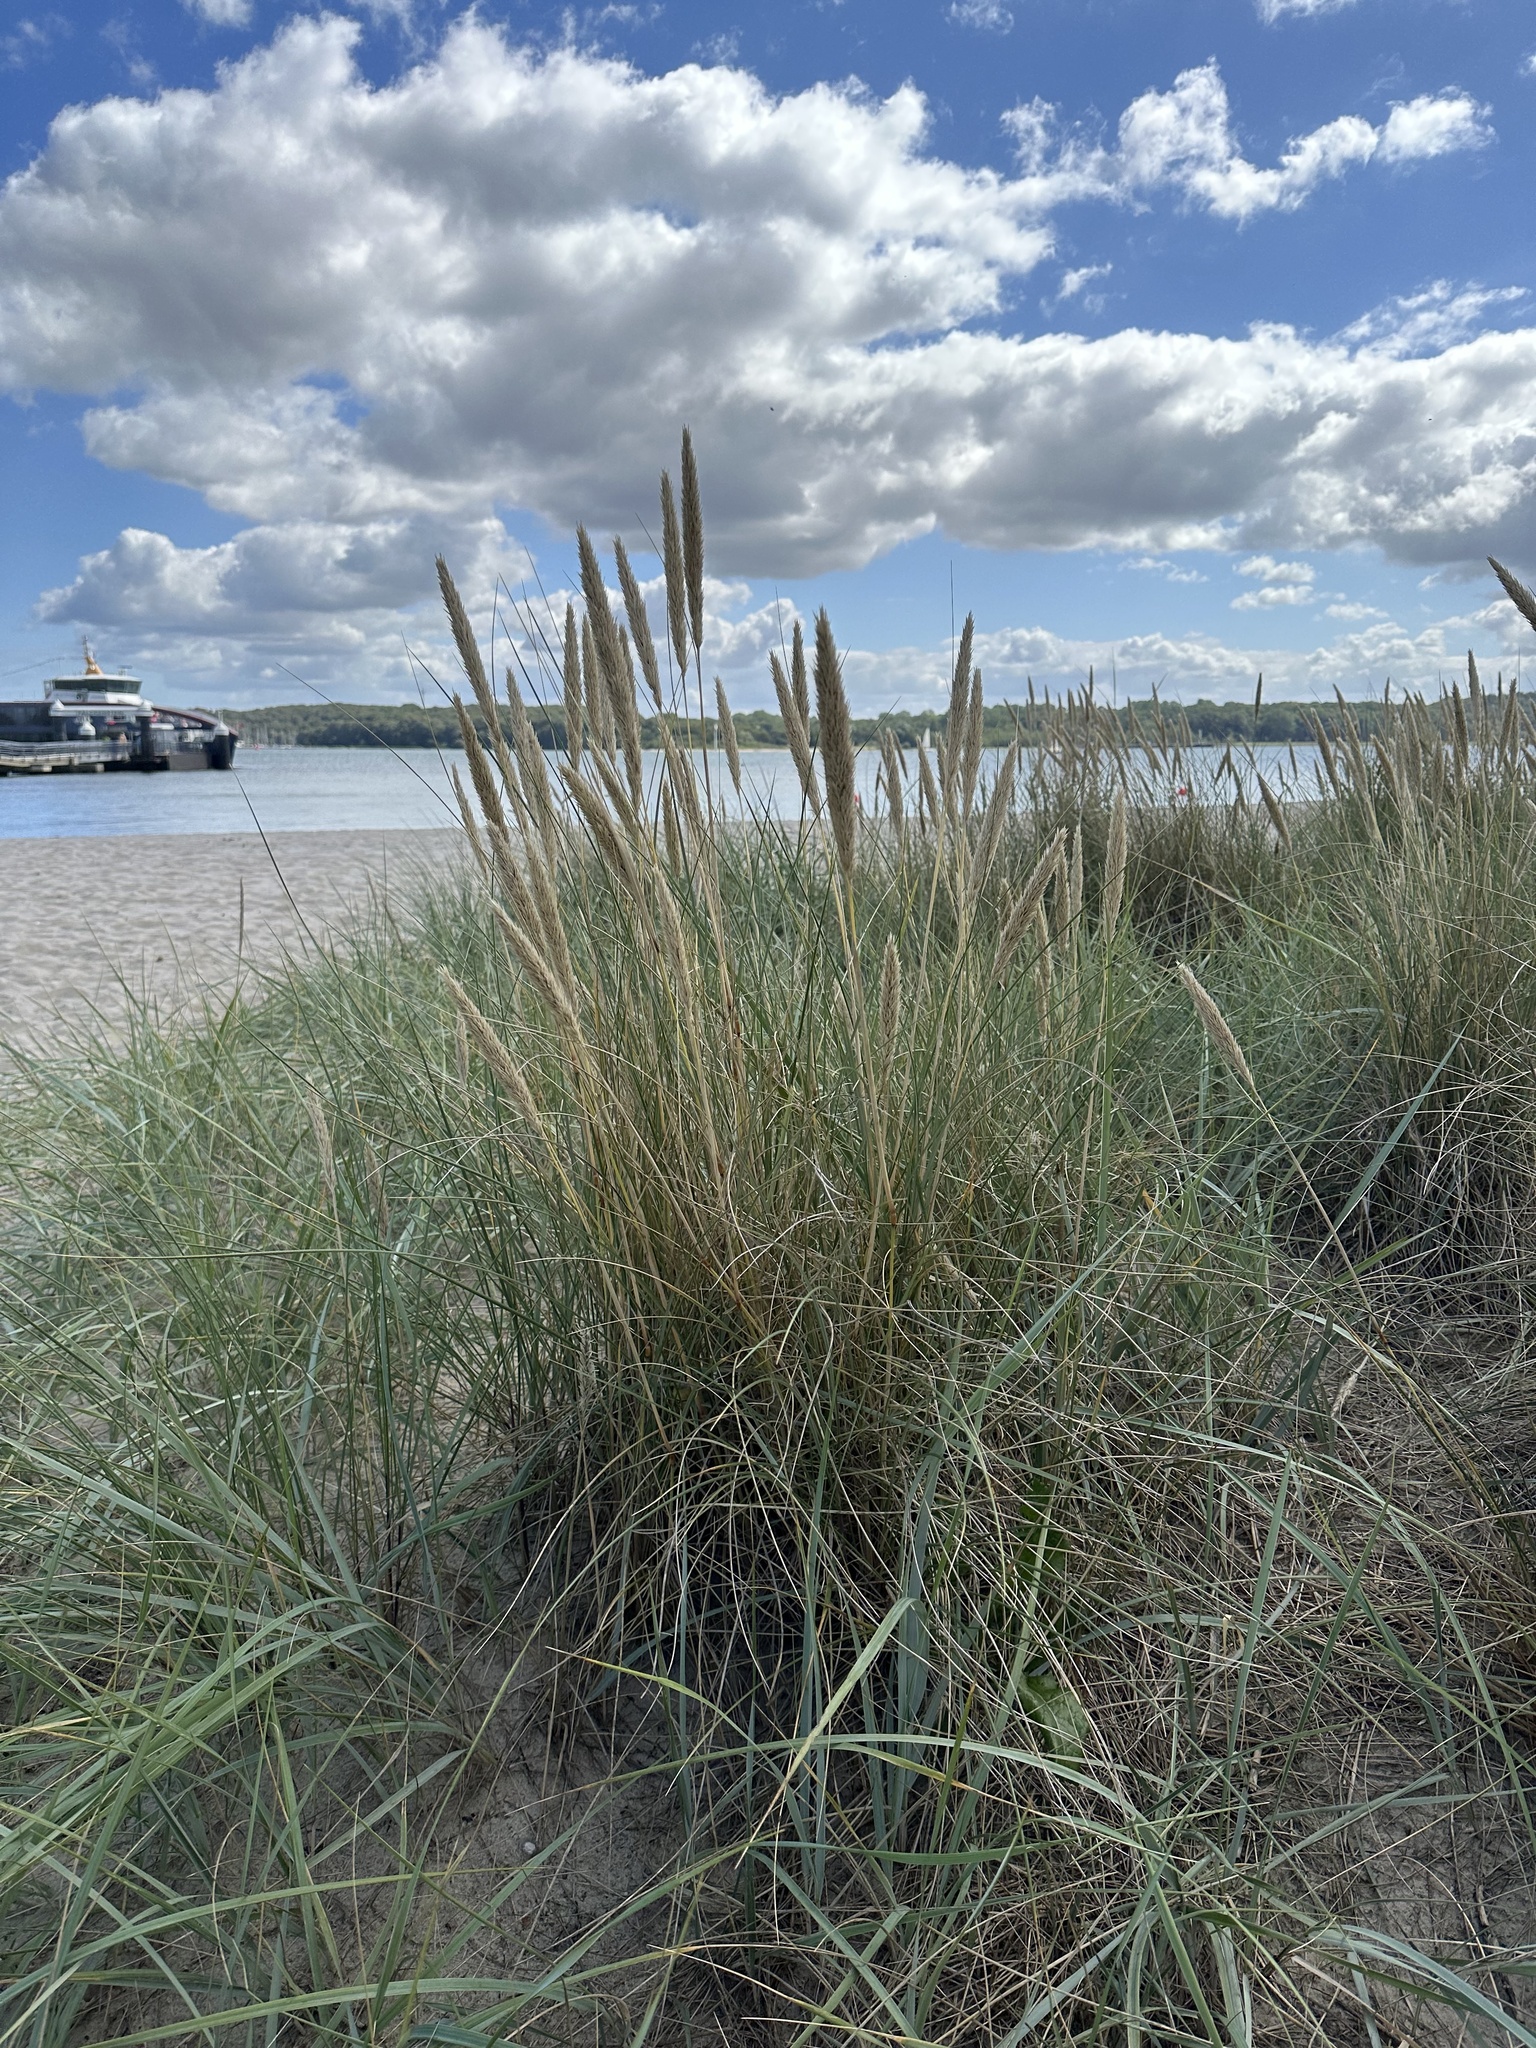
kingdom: Plantae
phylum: Tracheophyta
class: Liliopsida
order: Poales
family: Poaceae
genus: Calamagrostis
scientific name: Calamagrostis arenaria
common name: European beachgrass
